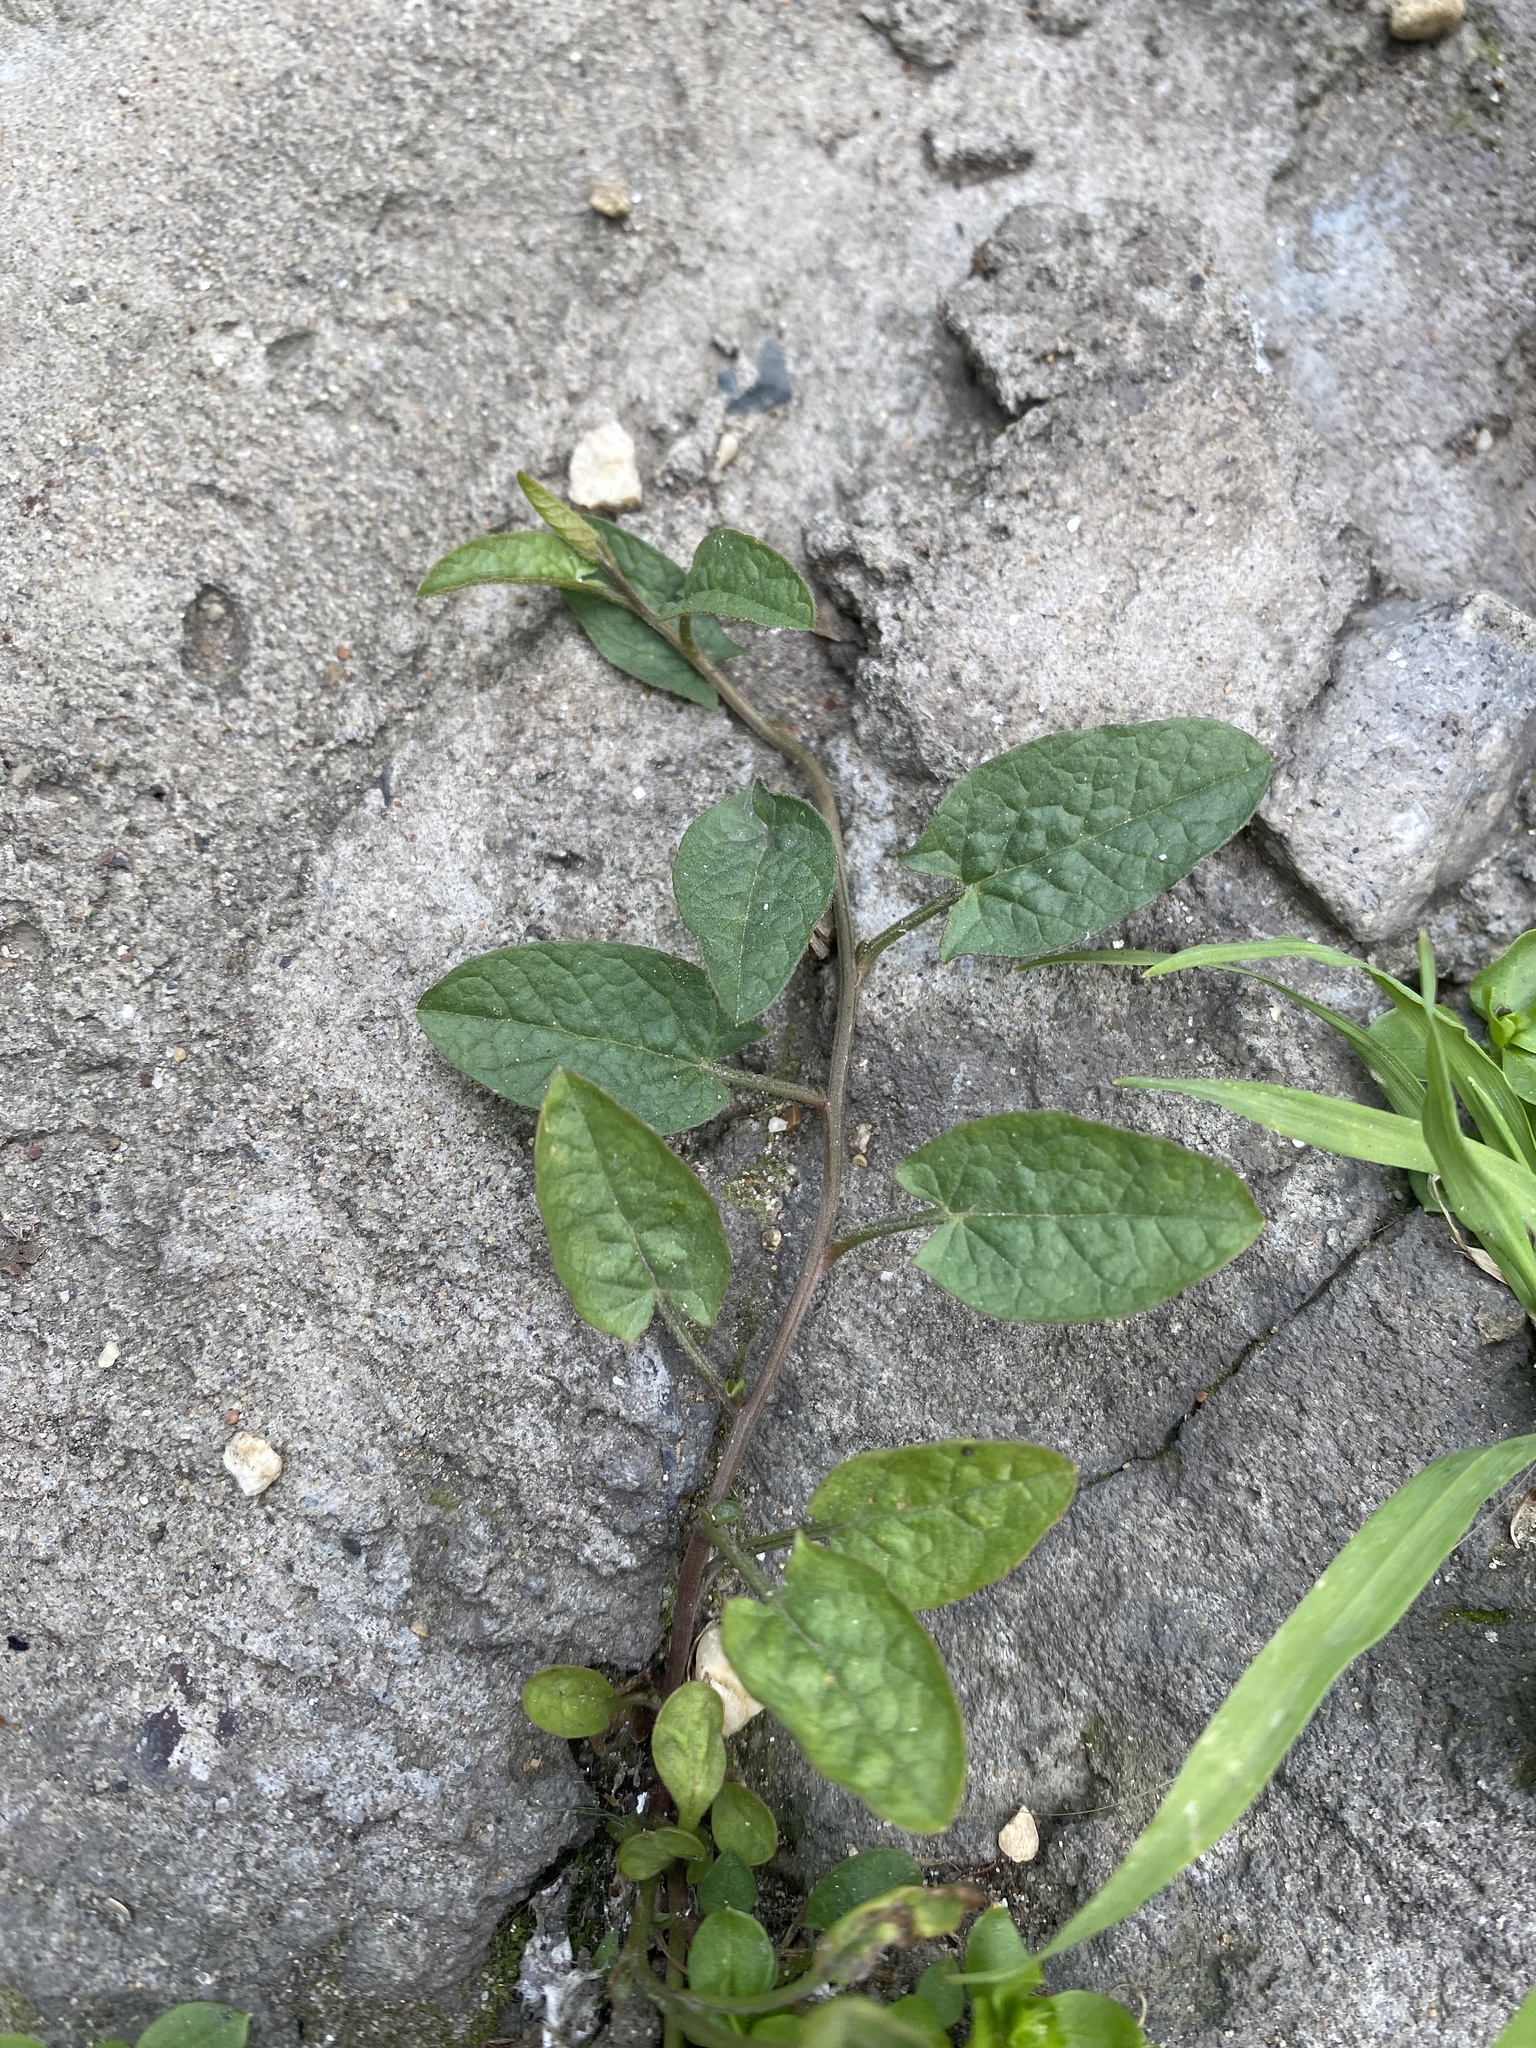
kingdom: Plantae
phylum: Tracheophyta
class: Magnoliopsida
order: Solanales
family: Convolvulaceae
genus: Convolvulus
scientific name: Convolvulus arvensis
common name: Field bindweed
